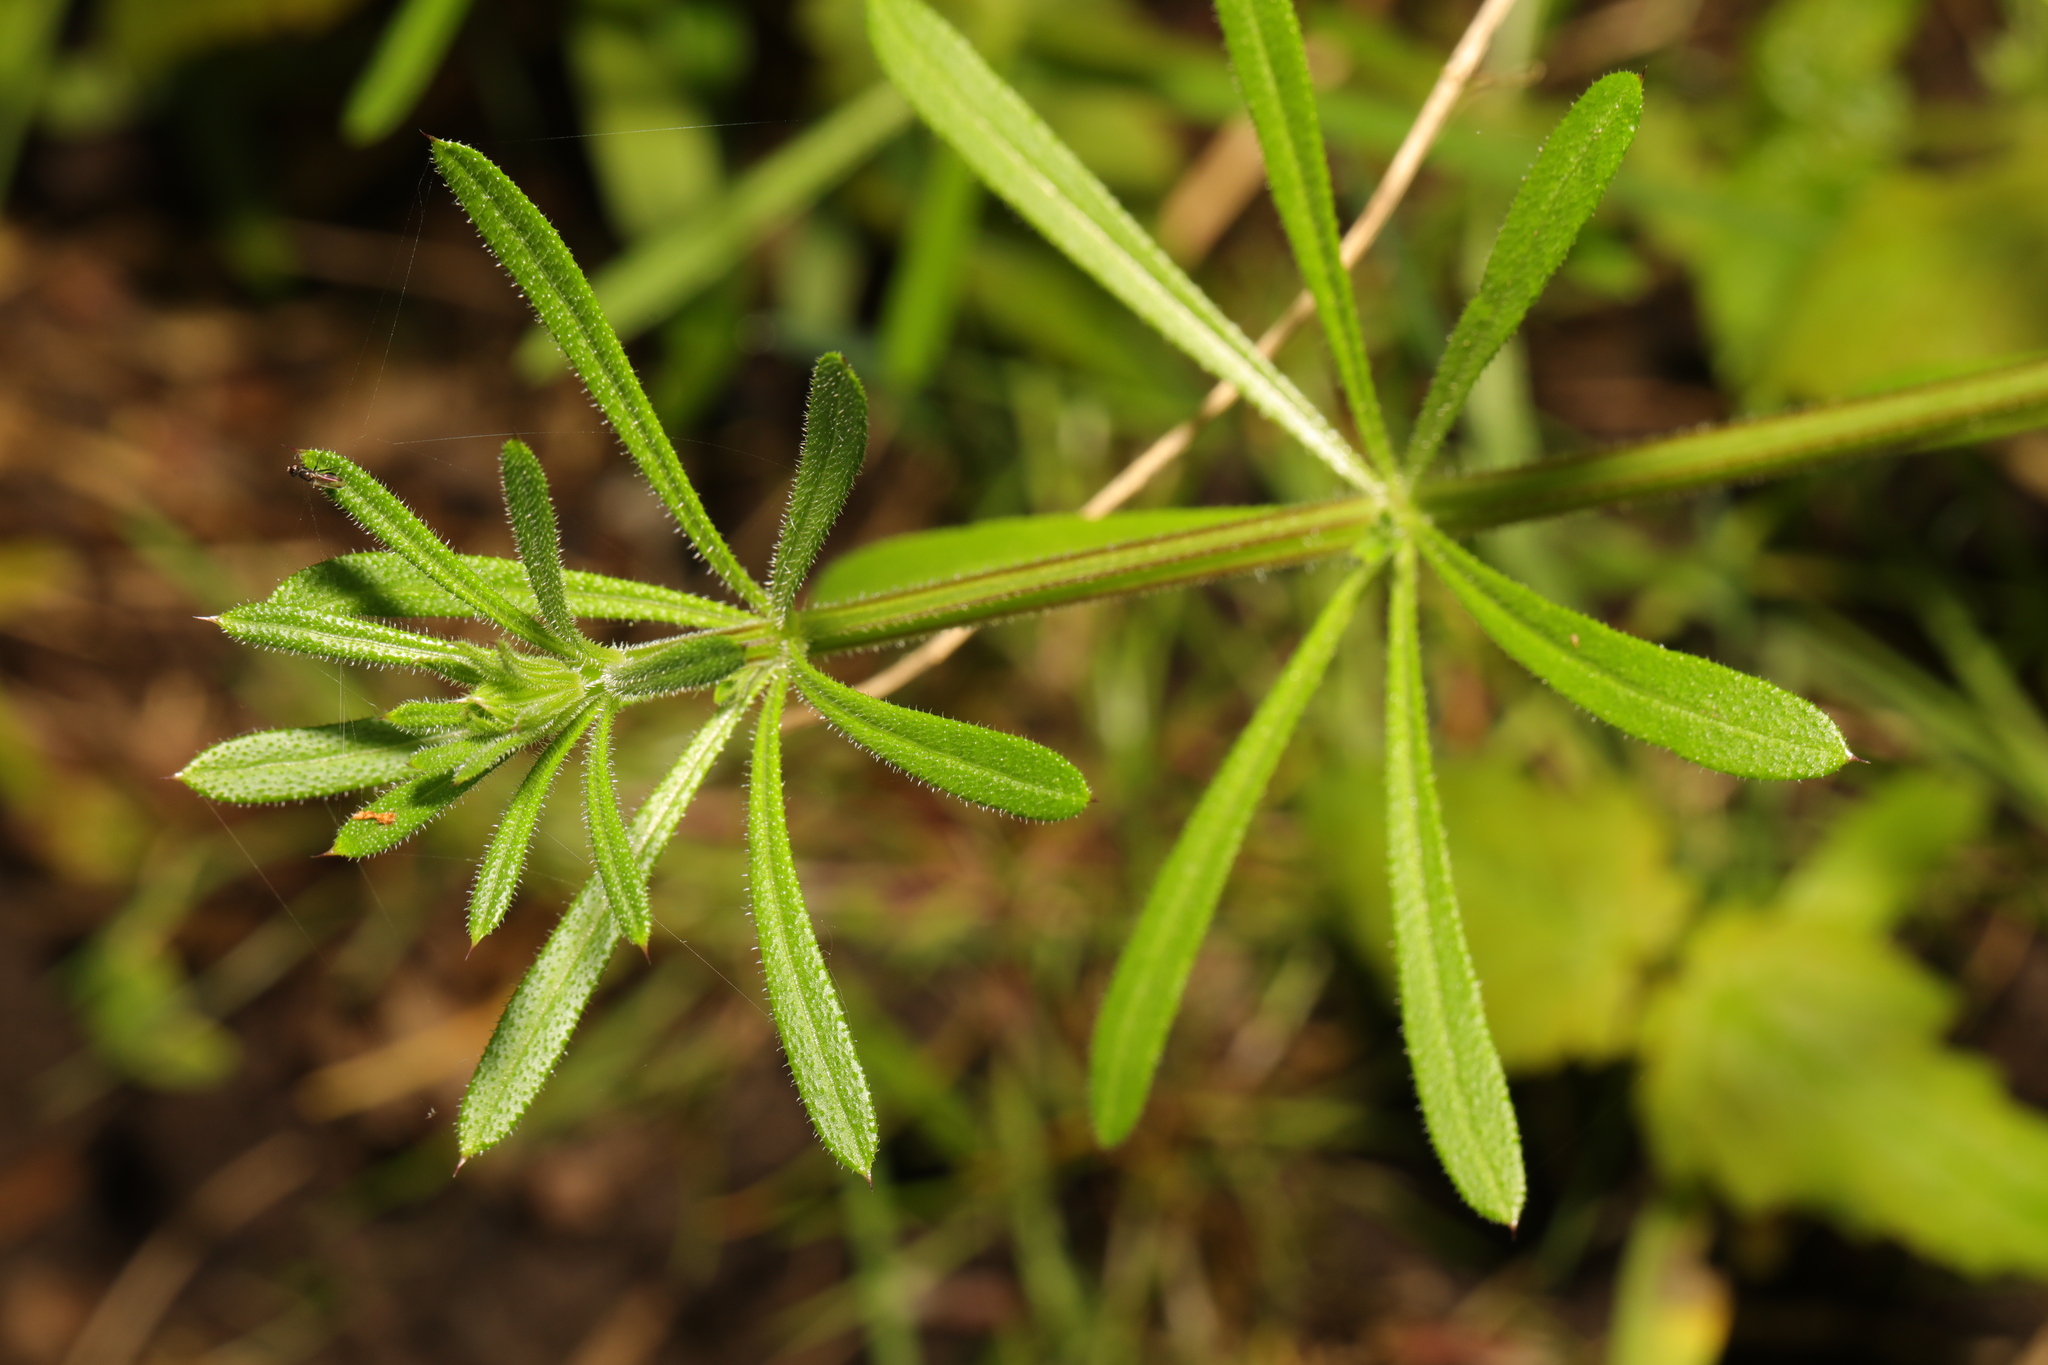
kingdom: Plantae
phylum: Tracheophyta
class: Magnoliopsida
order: Gentianales
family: Rubiaceae
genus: Galium
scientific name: Galium aparine
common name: Cleavers
